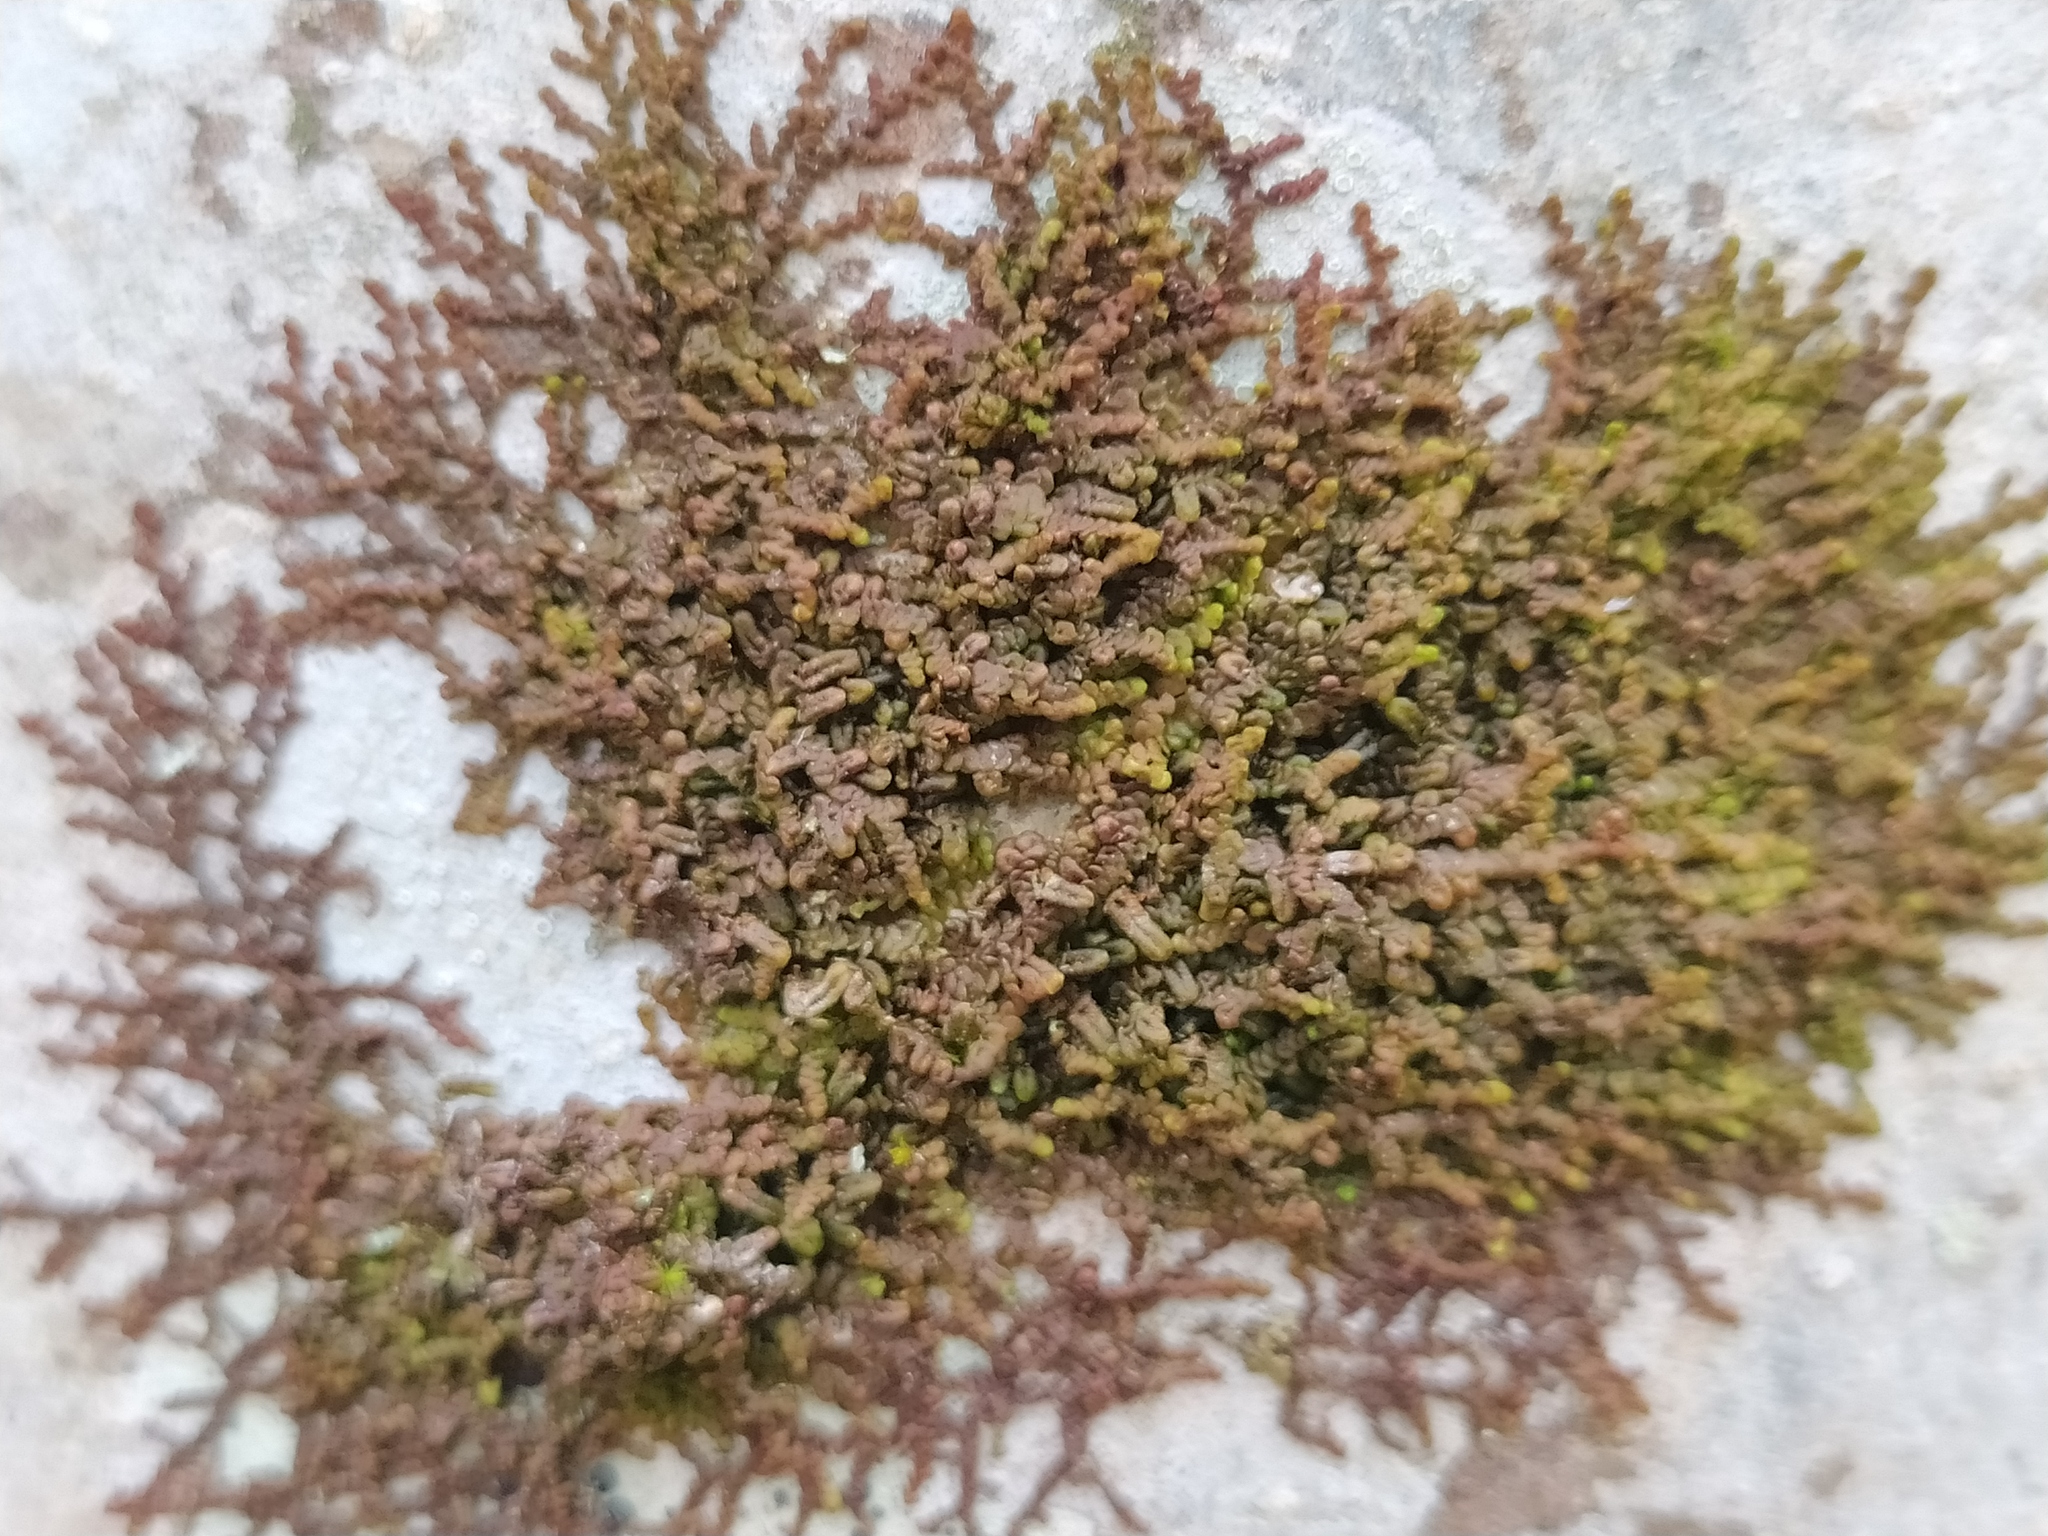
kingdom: Plantae
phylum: Marchantiophyta
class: Jungermanniopsida
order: Porellales
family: Frullaniaceae
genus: Frullania
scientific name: Frullania dilatata
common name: Dilated scalewort
